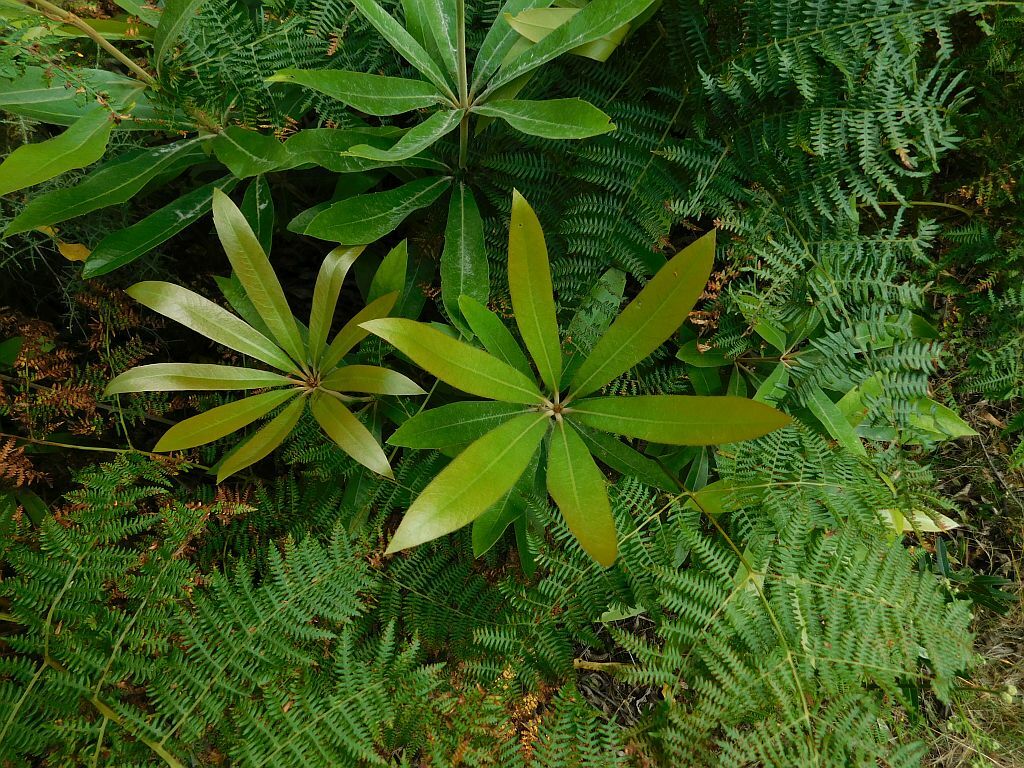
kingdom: Plantae
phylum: Tracheophyta
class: Magnoliopsida
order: Proteales
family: Proteaceae
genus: Brabejum
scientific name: Brabejum stellatifolium
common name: Wild almond
